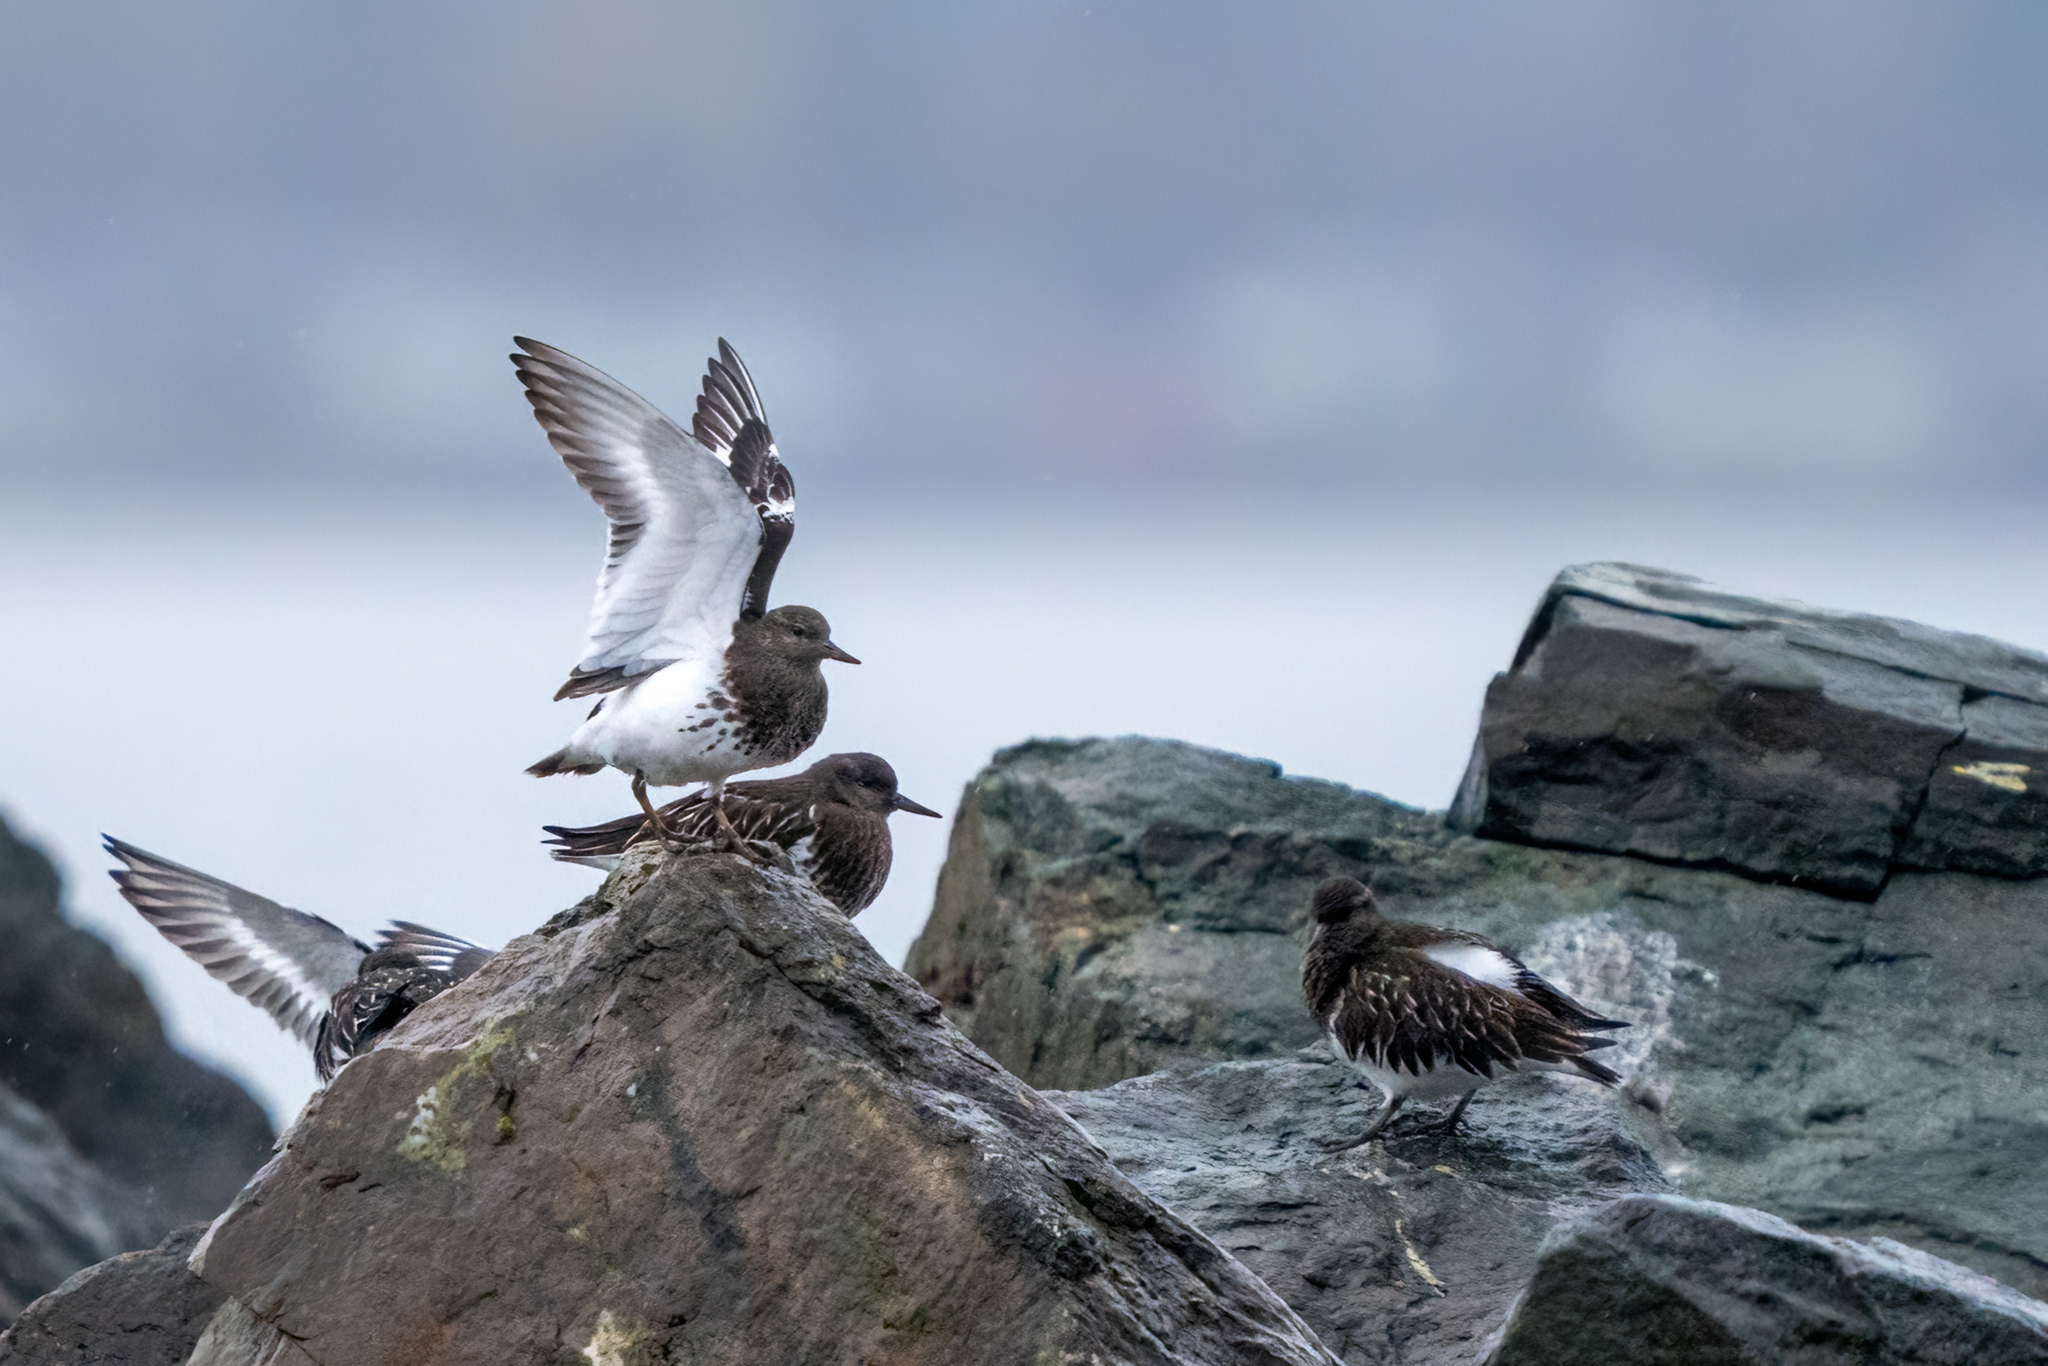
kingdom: Animalia
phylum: Chordata
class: Aves
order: Charadriiformes
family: Scolopacidae
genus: Arenaria
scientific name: Arenaria melanocephala
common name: Black turnstone
